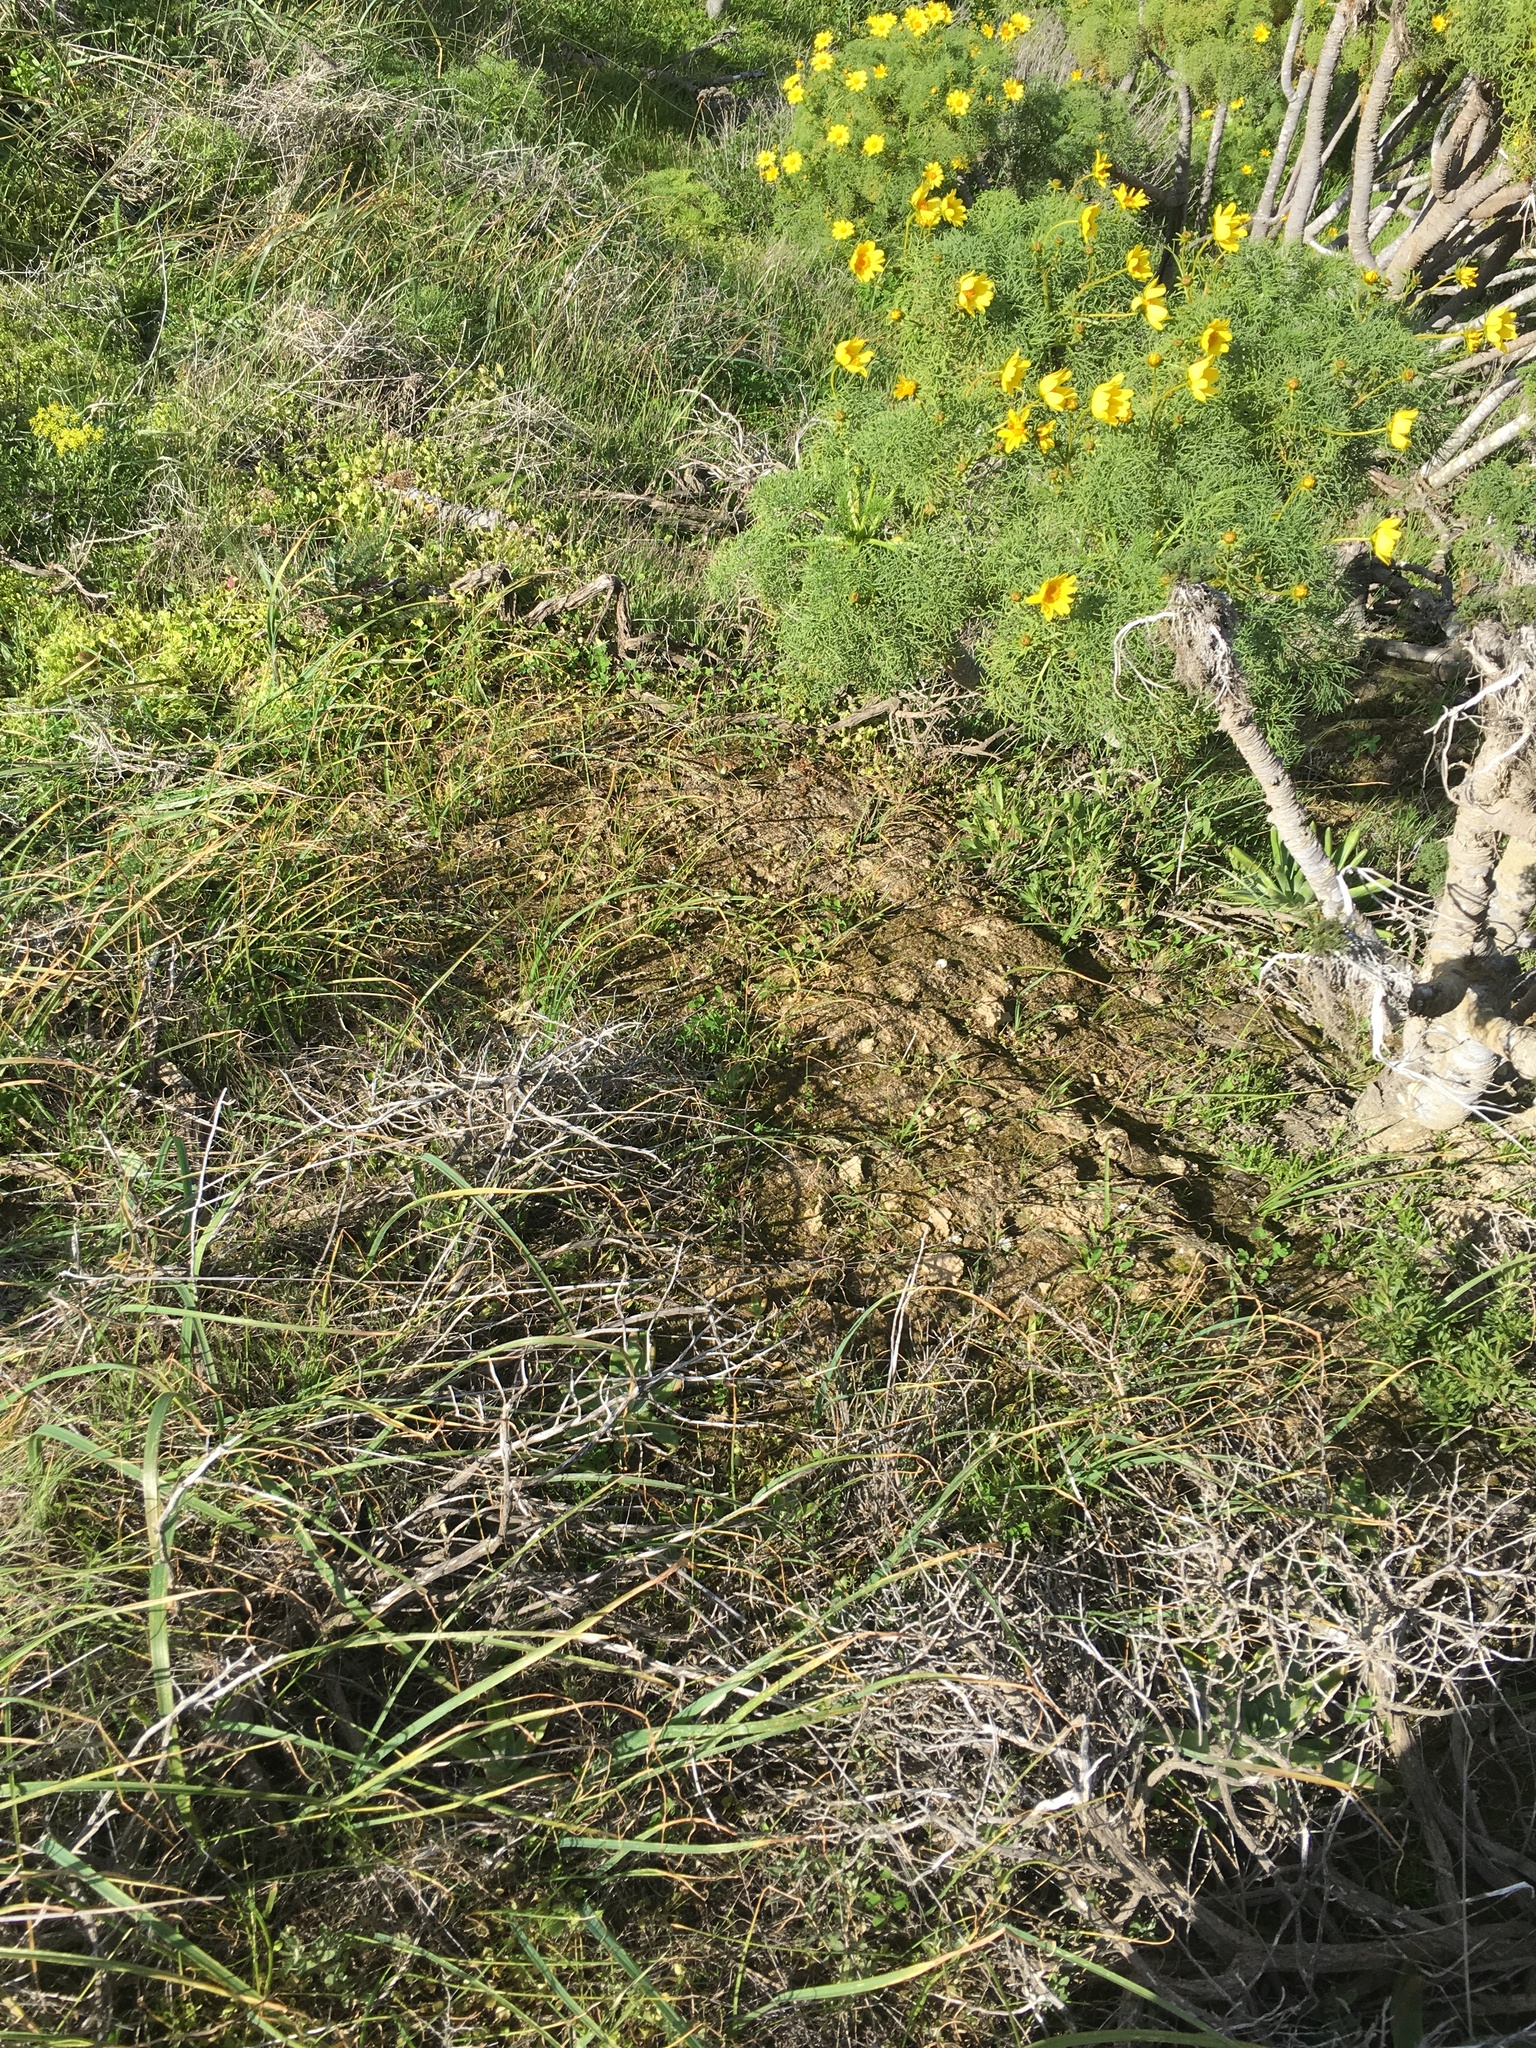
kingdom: Plantae
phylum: Tracheophyta
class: Magnoliopsida
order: Asterales
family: Asteraceae
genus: Coreopsis
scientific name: Coreopsis gigantea
